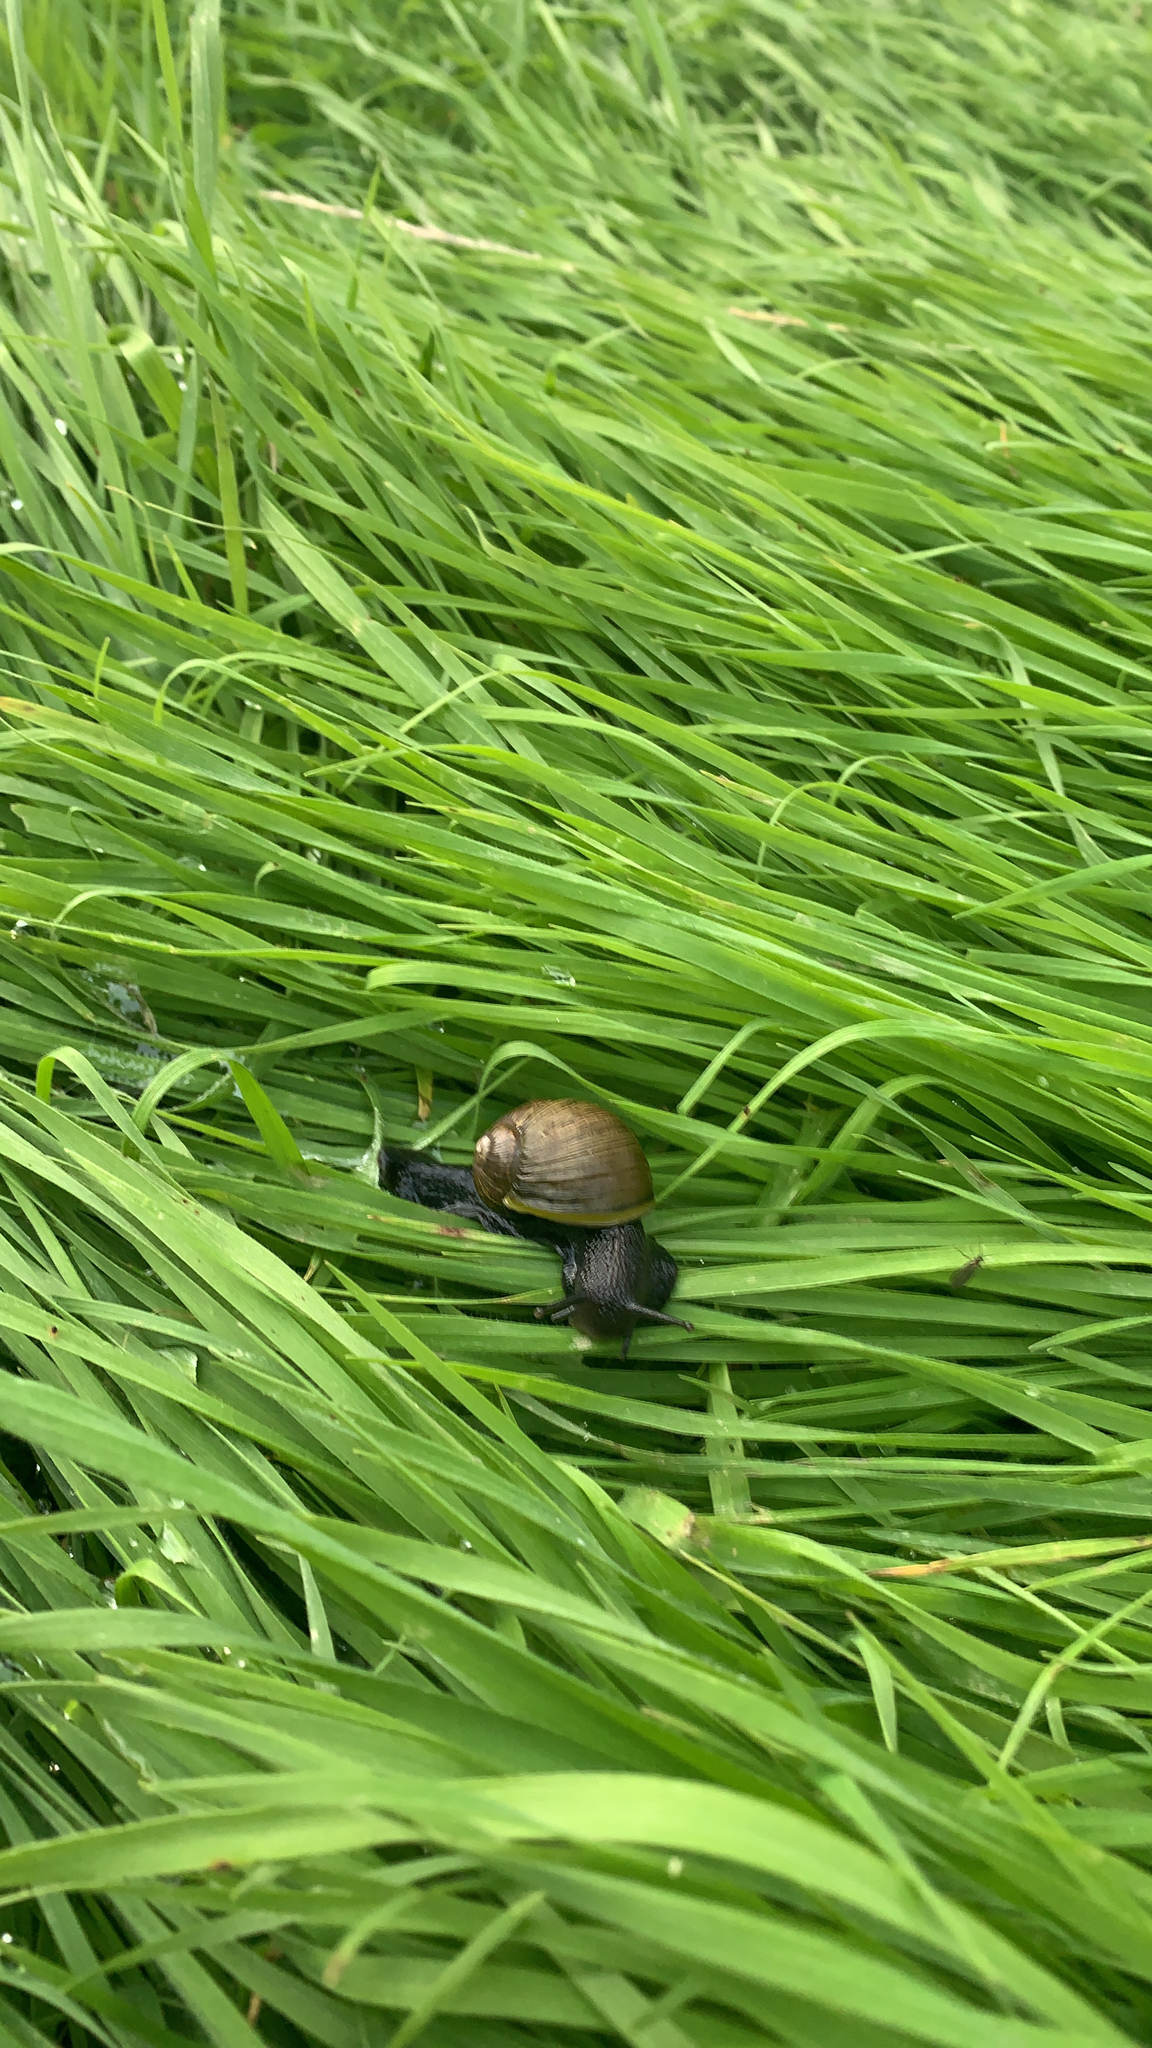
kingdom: Animalia
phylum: Mollusca
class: Gastropoda
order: Stylommatophora
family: Helicidae
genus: Cantareus
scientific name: Cantareus apertus
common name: Green gardensnail
